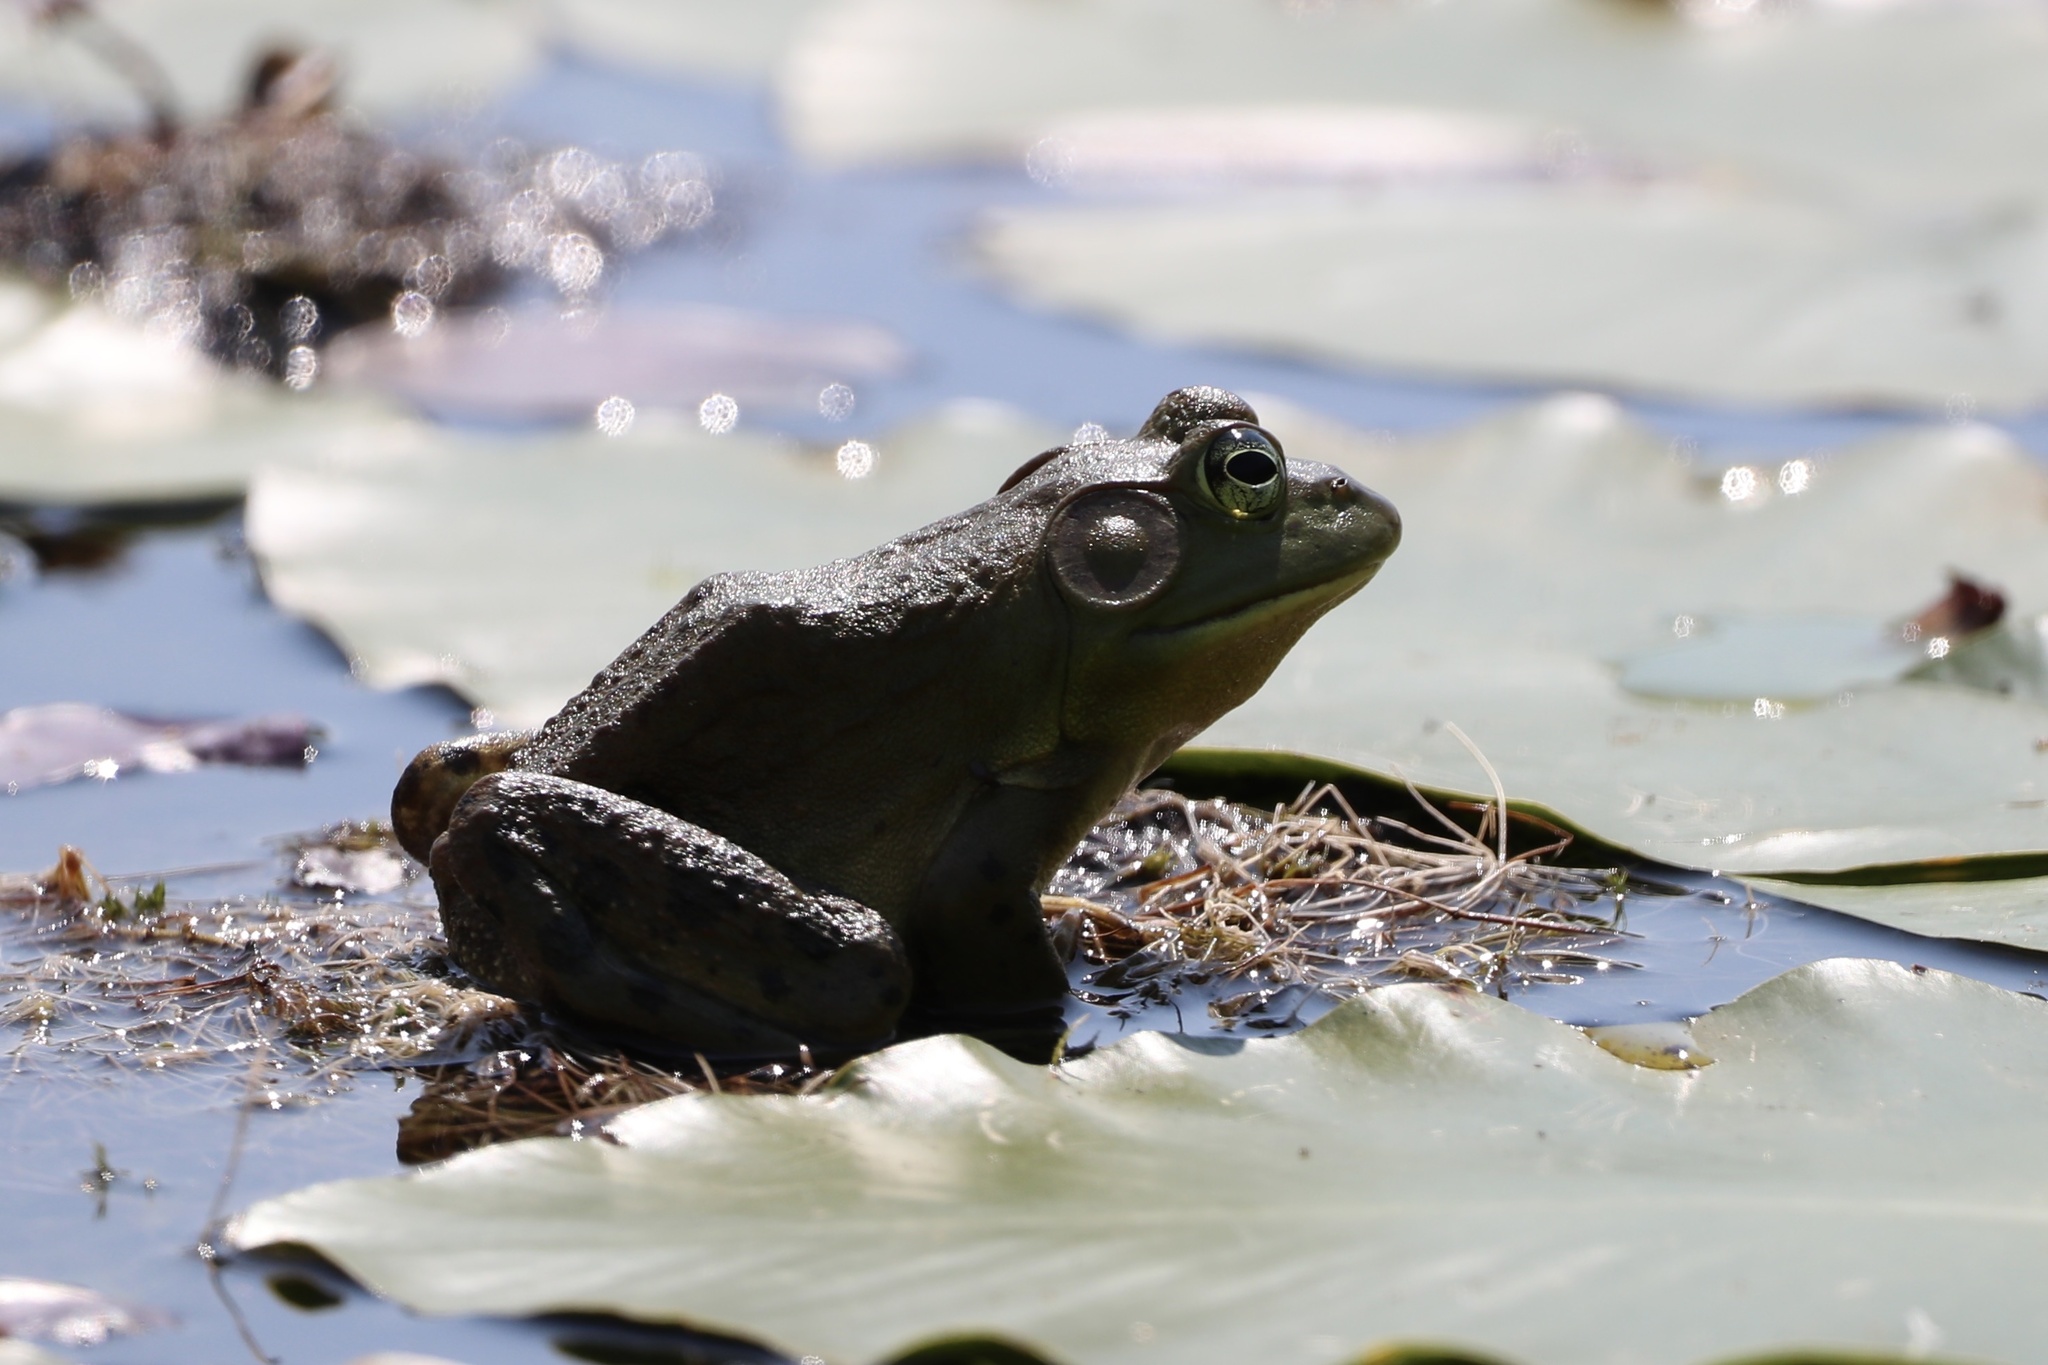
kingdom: Animalia
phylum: Chordata
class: Amphibia
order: Anura
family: Ranidae
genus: Lithobates
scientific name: Lithobates catesbeianus
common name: American bullfrog
